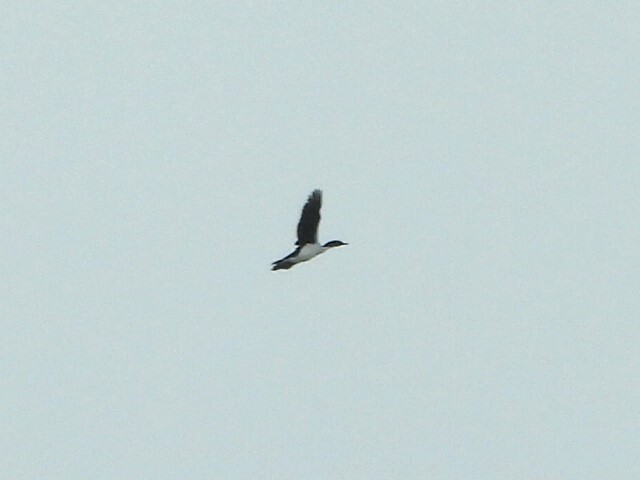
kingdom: Animalia
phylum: Chordata
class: Aves
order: Suliformes
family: Phalacrocoracidae
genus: Leucocarbo
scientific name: Leucocarbo chalconotus
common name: Stewart shag
